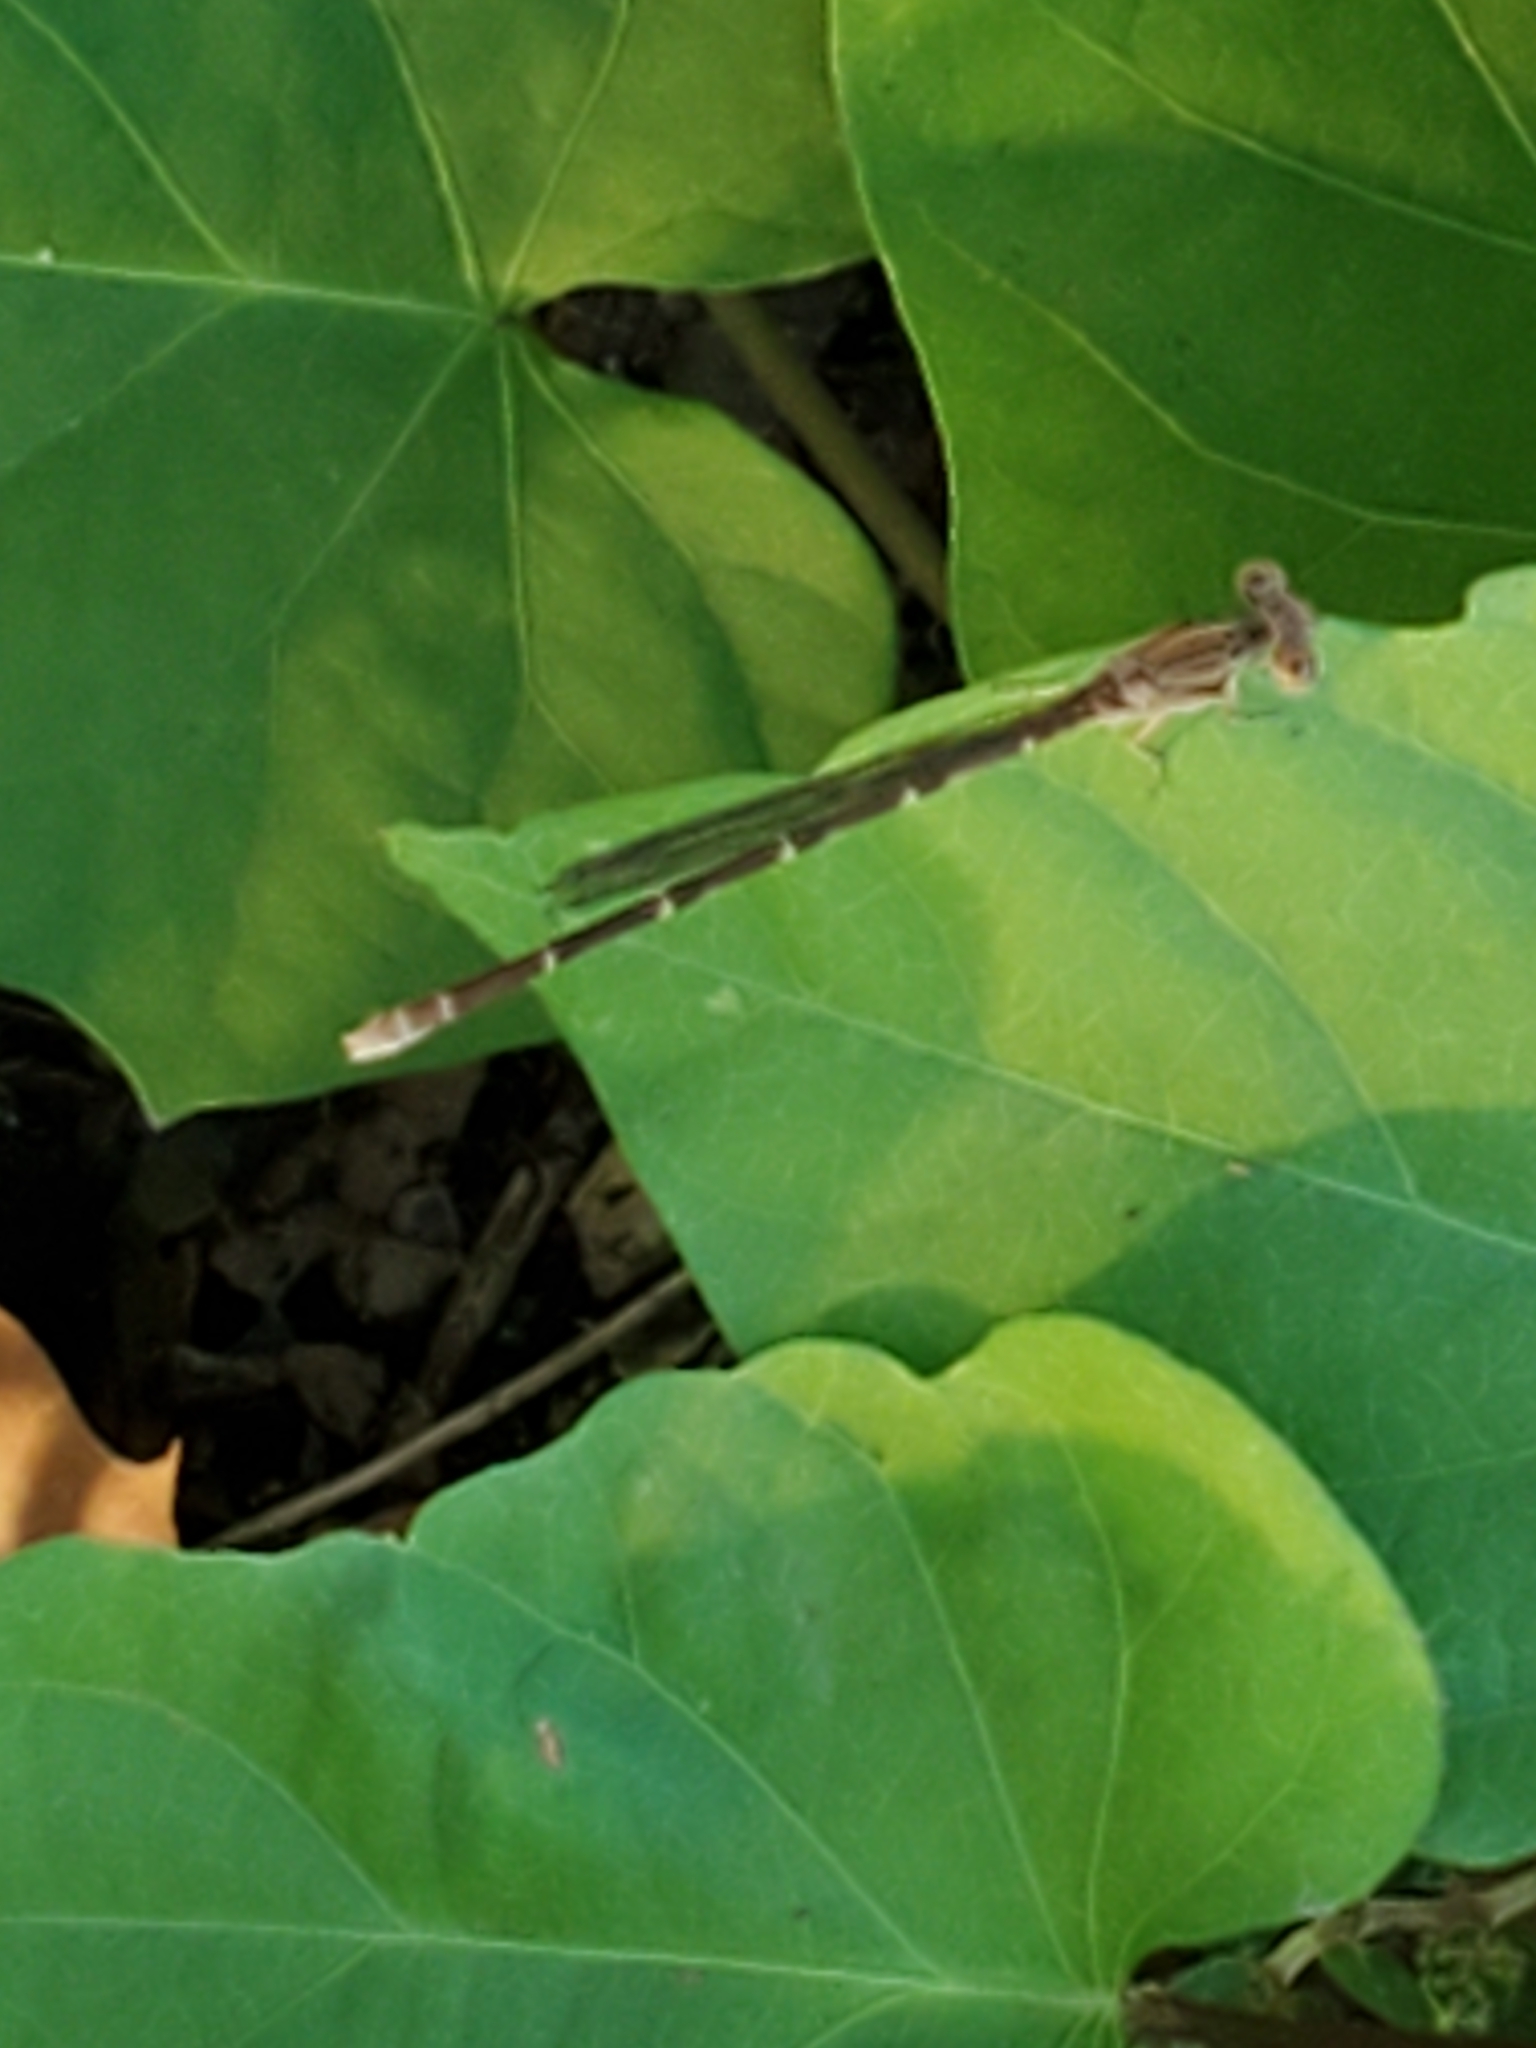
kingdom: Animalia
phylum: Arthropoda
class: Insecta
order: Odonata
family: Coenagrionidae
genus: Argia
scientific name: Argia sedula
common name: Blue-ringed dancer
